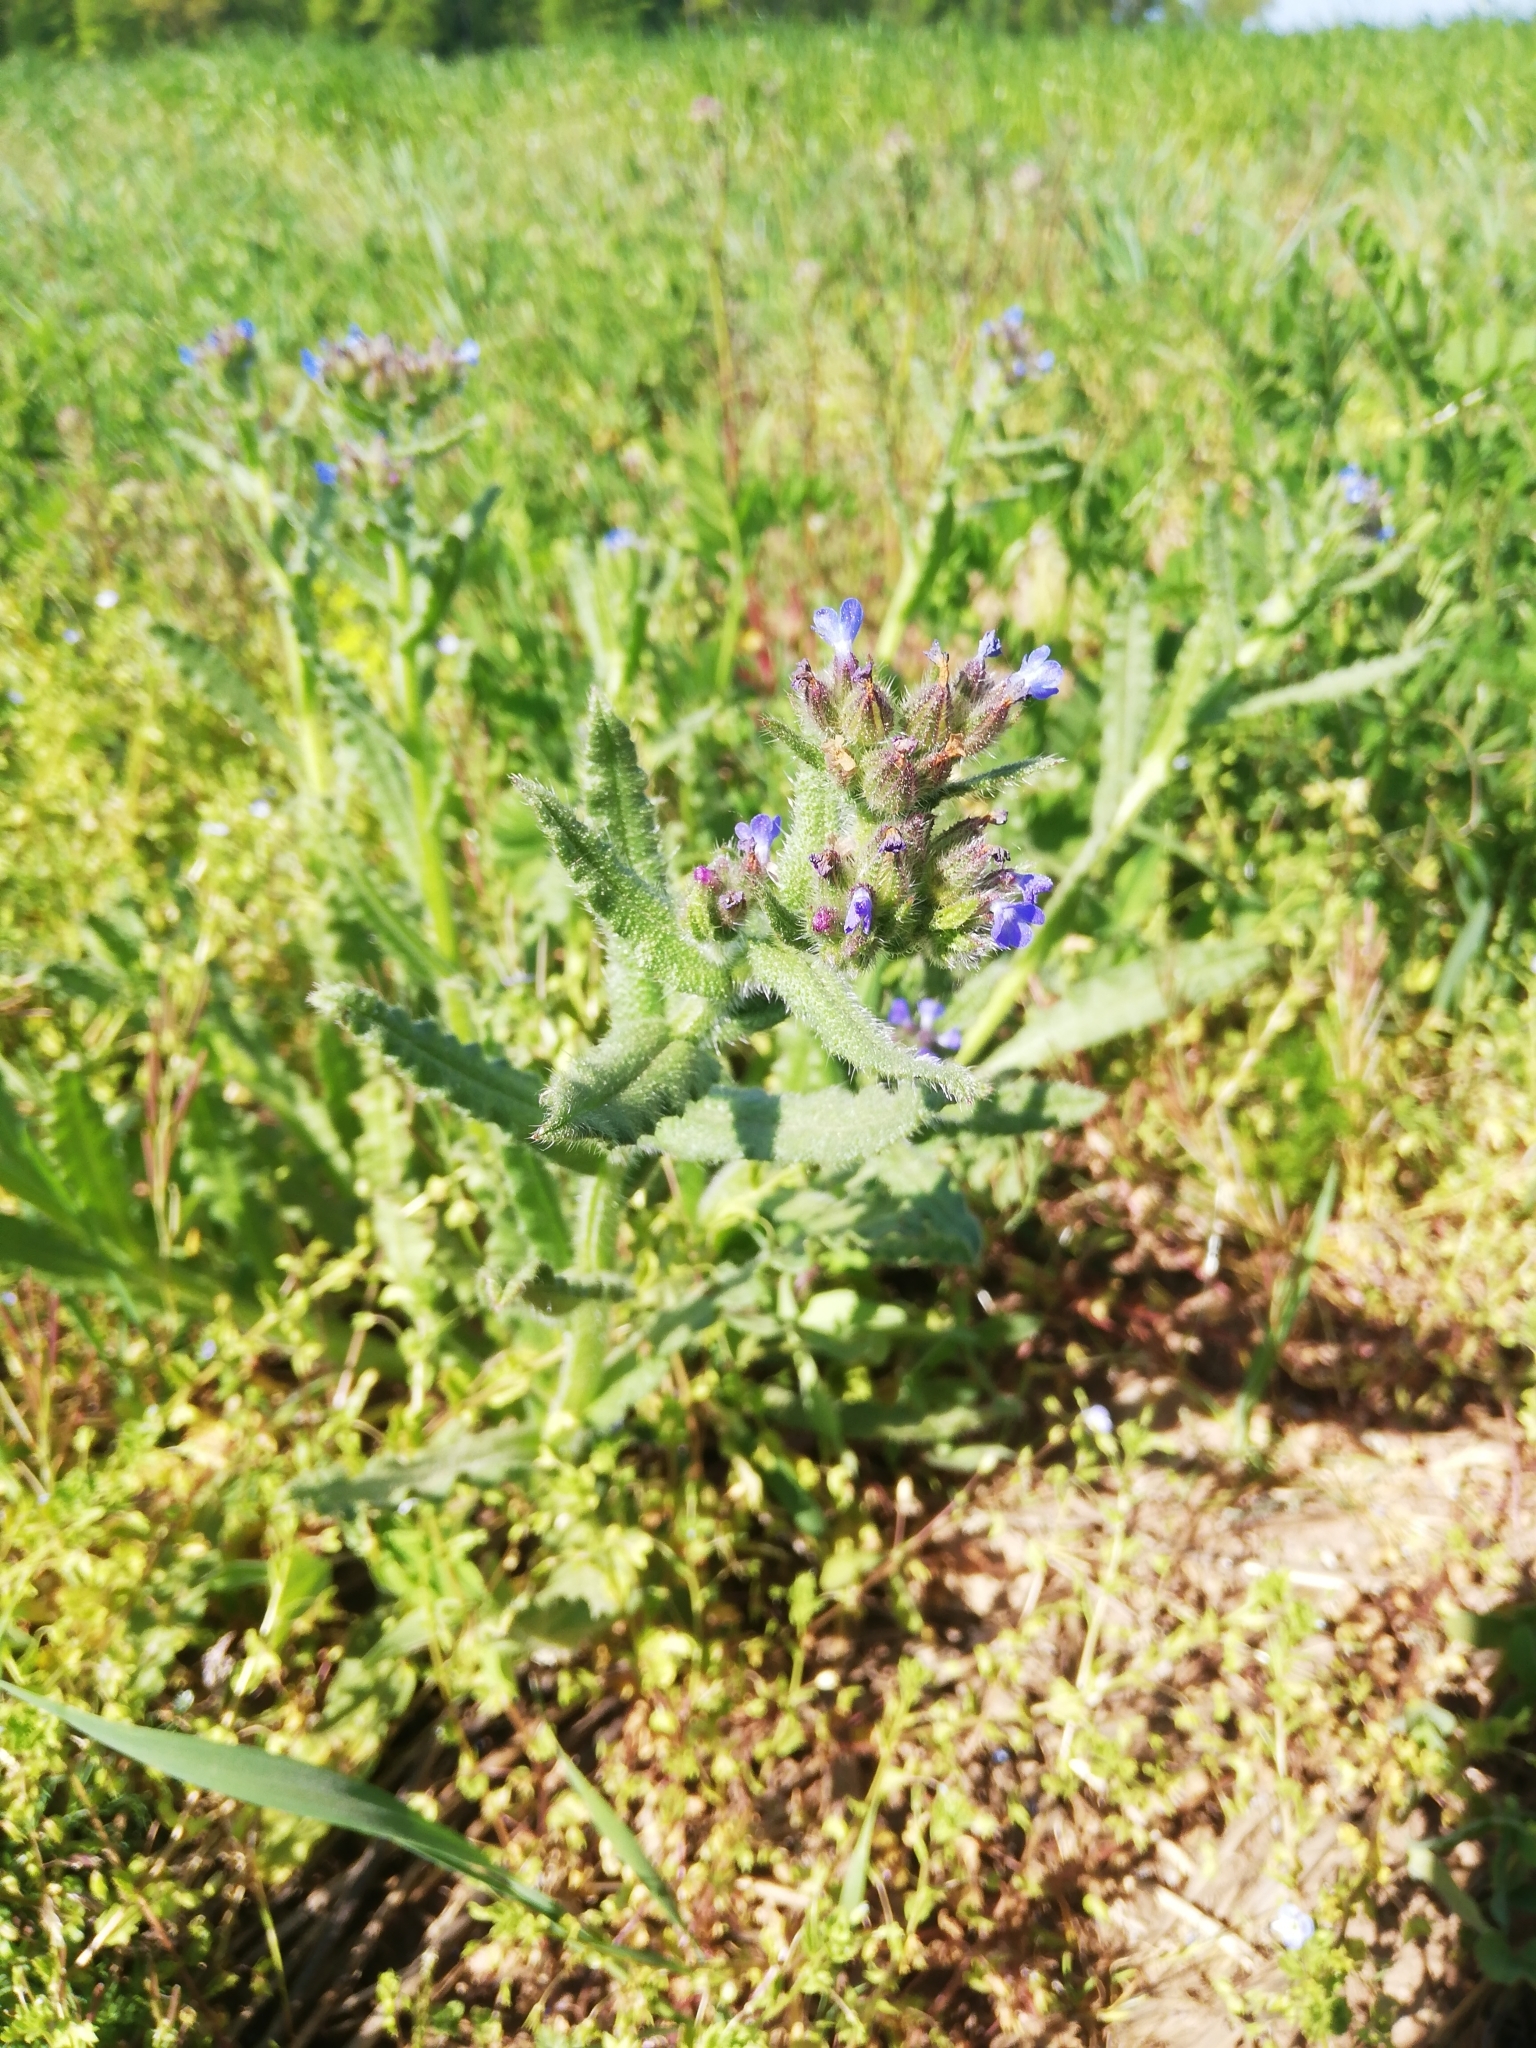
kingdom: Plantae
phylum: Tracheophyta
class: Magnoliopsida
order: Boraginales
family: Boraginaceae
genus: Lycopsis
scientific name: Lycopsis arvensis
